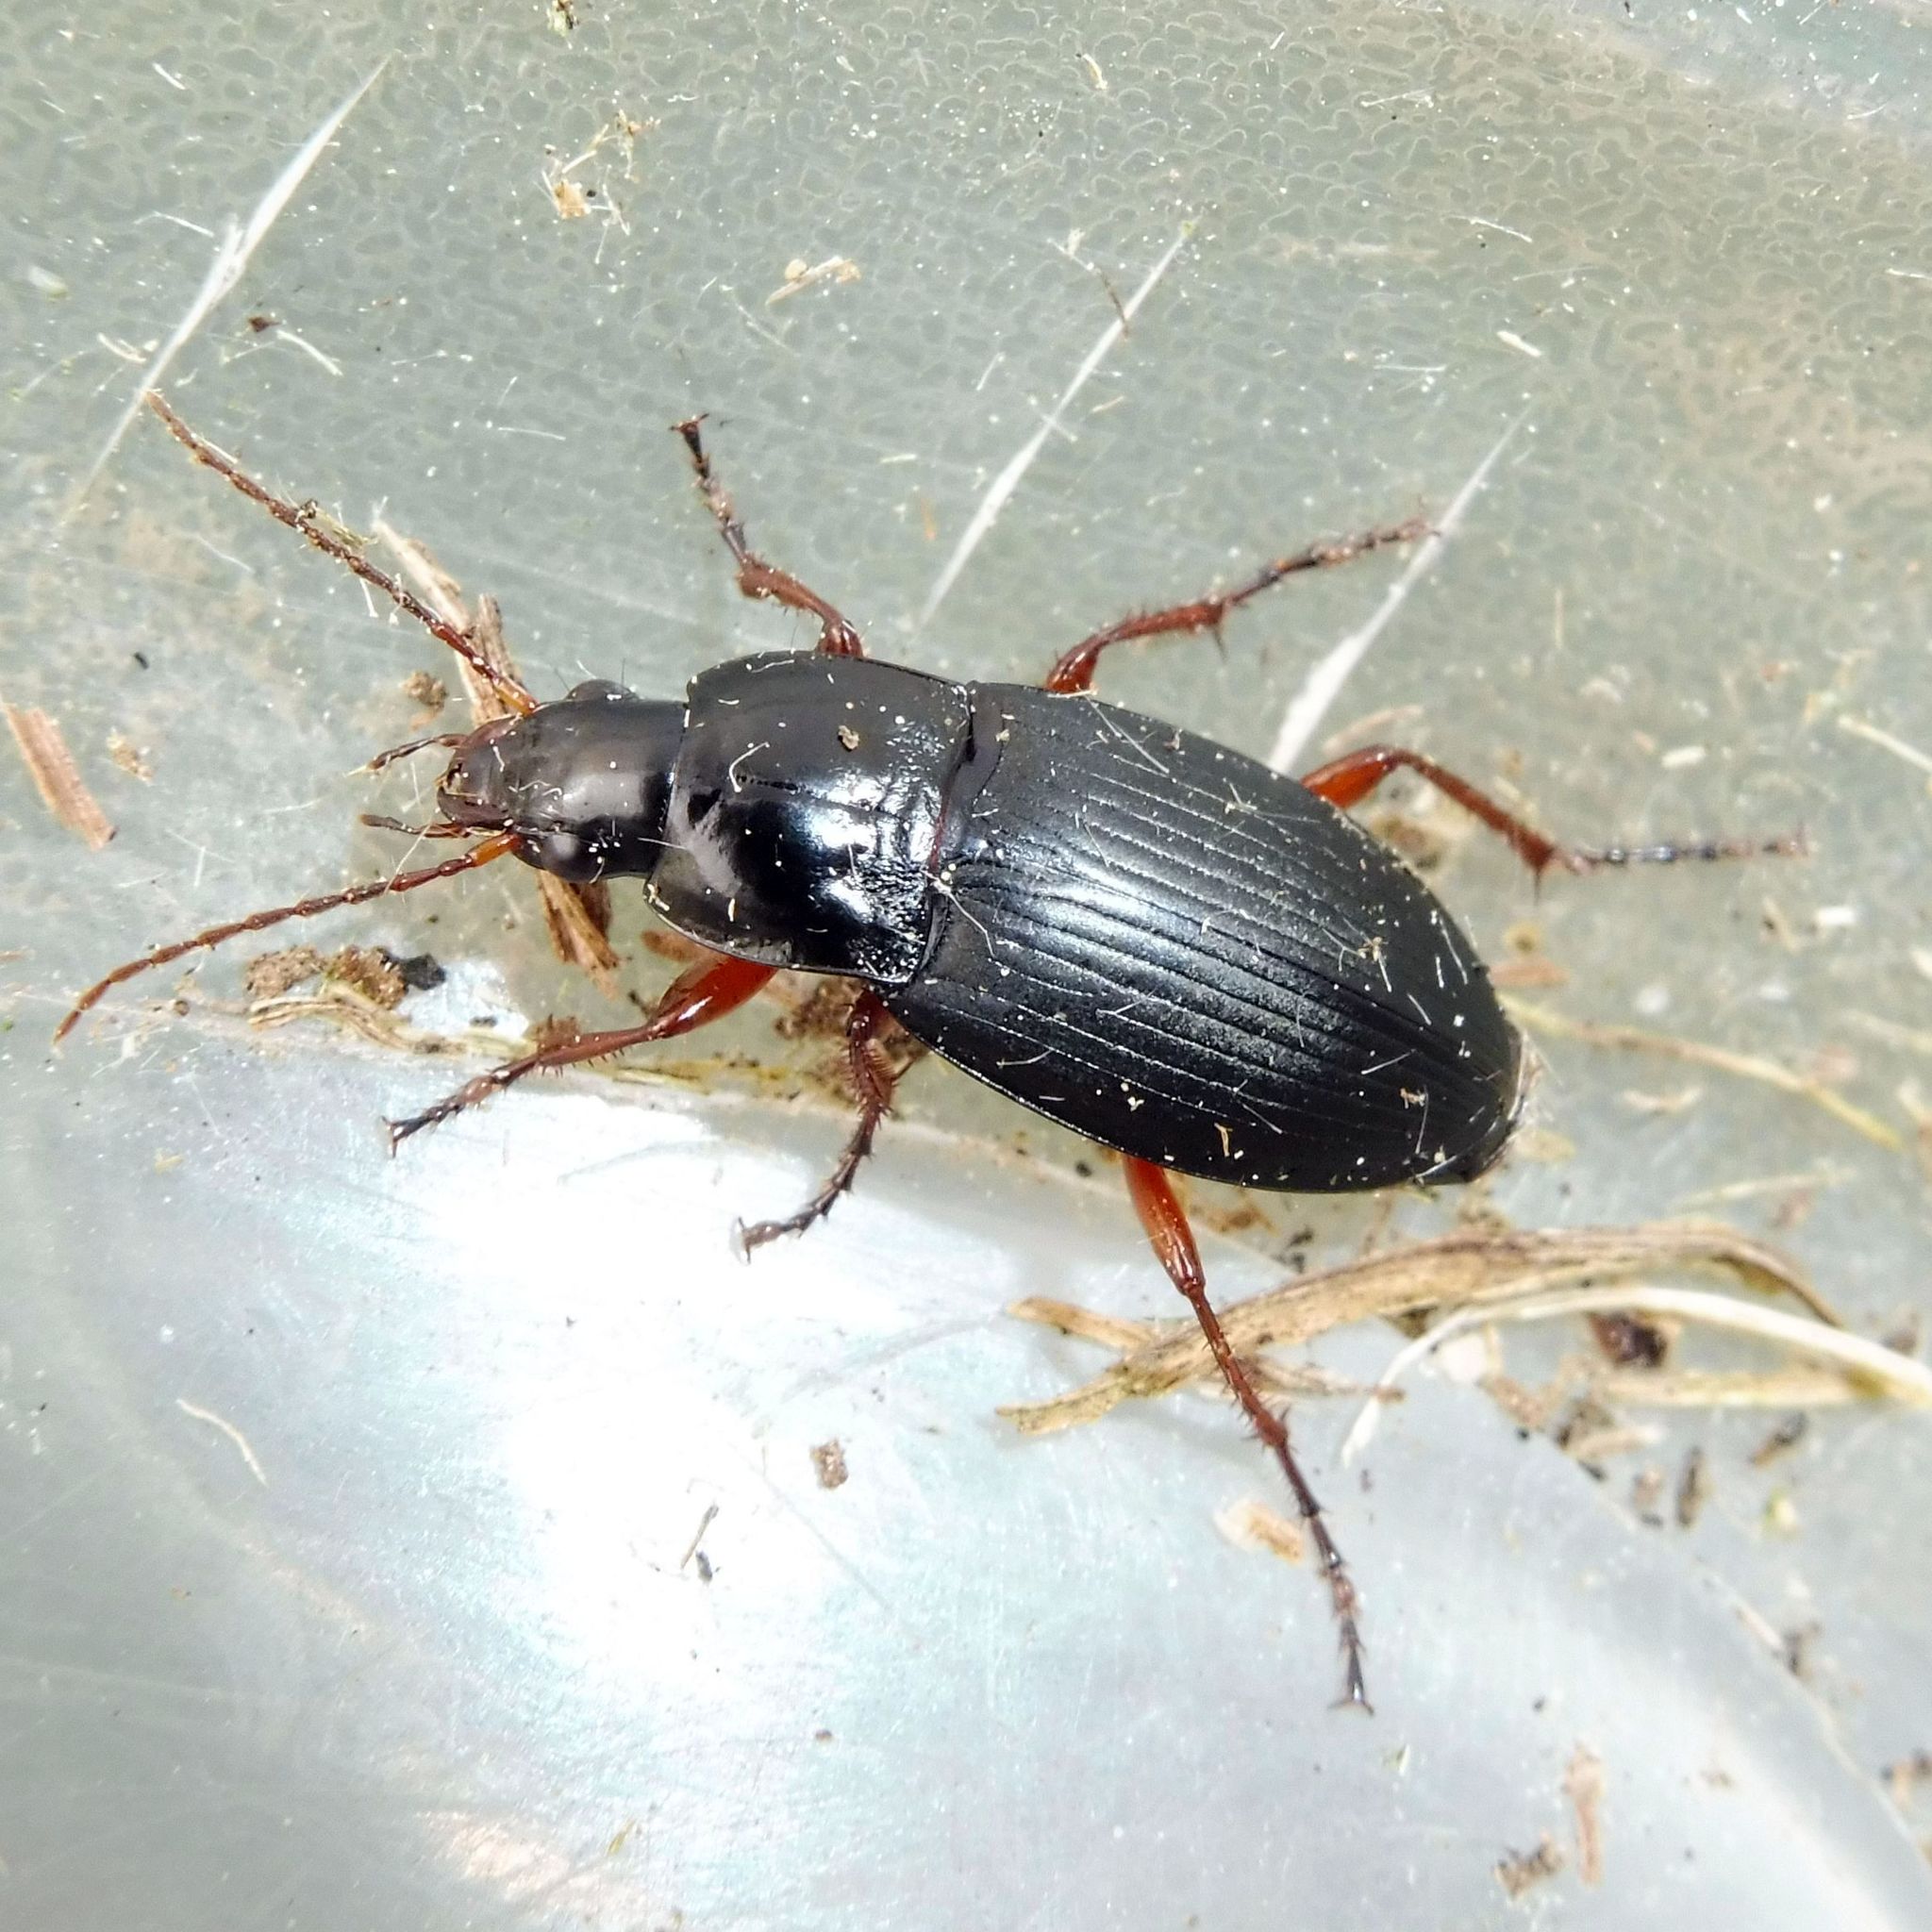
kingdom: Animalia
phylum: Arthropoda
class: Insecta
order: Coleoptera
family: Carabidae
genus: Calathus
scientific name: Calathus fuscipes
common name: Dark-footed harp ground beetle
